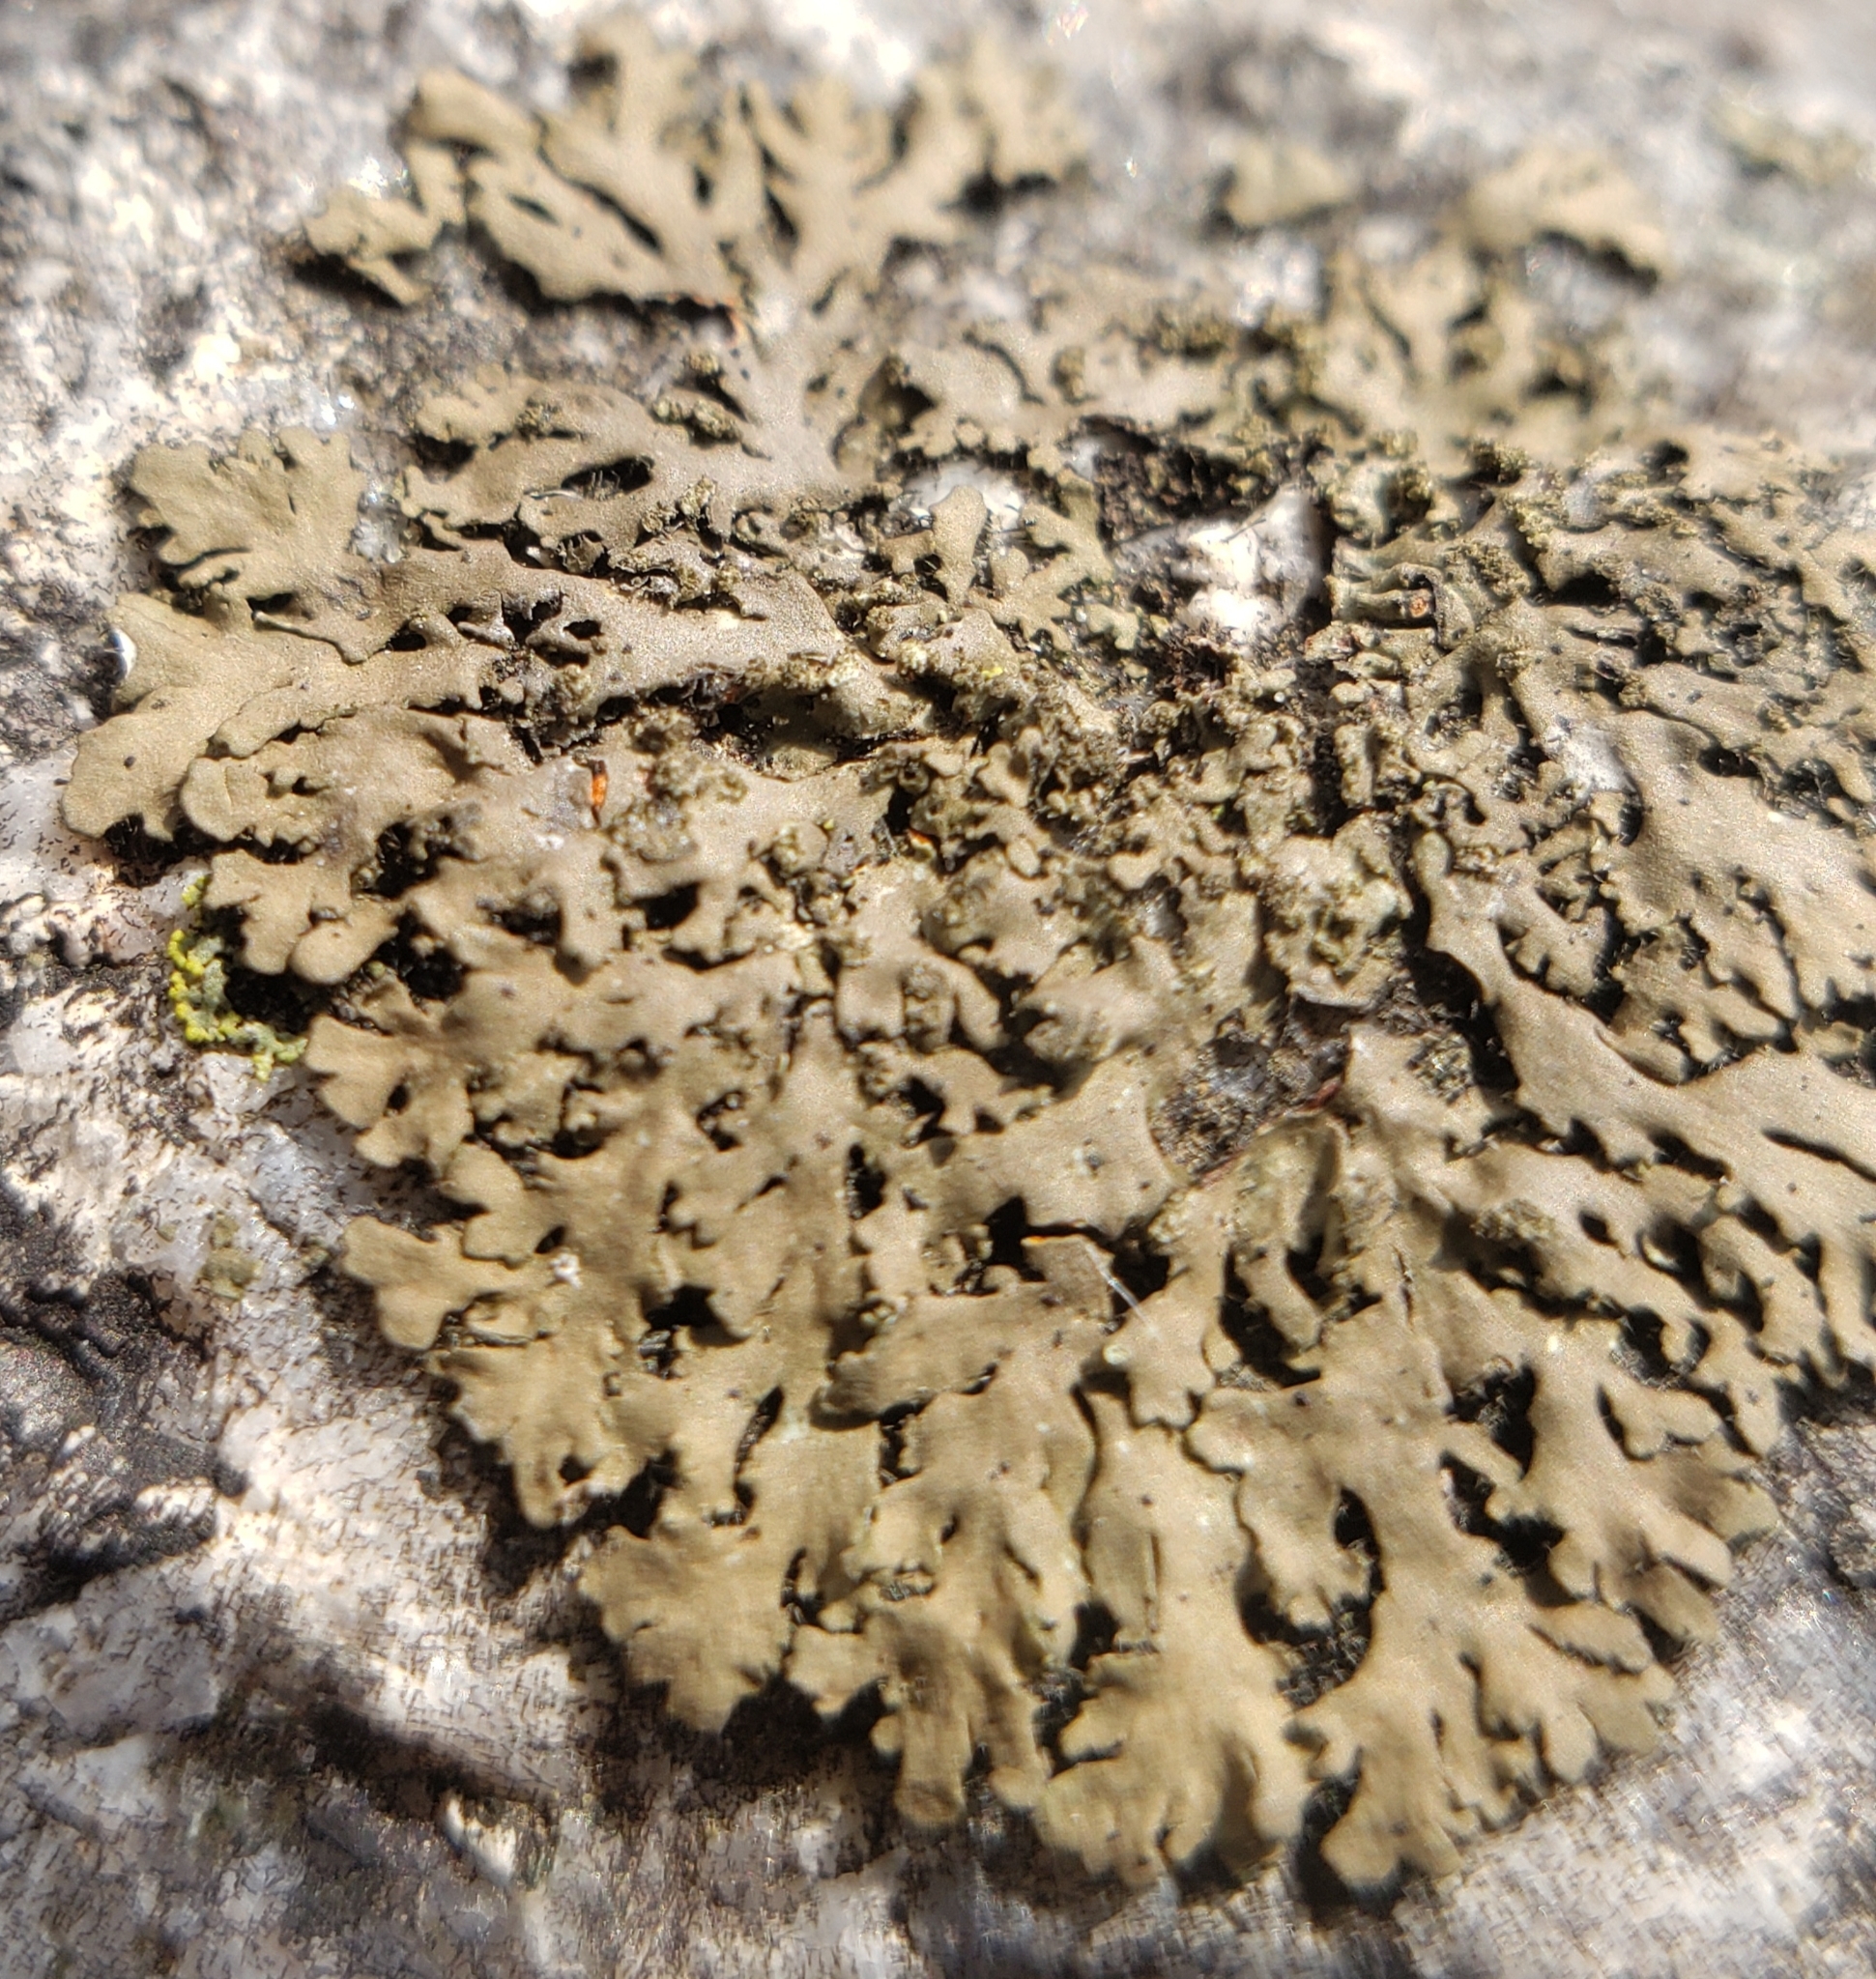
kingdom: Fungi
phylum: Ascomycota
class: Lecanoromycetes
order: Caliciales
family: Physciaceae
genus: Phaeophyscia
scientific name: Phaeophyscia rubropulchra
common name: Orange-cored shadow lichen
